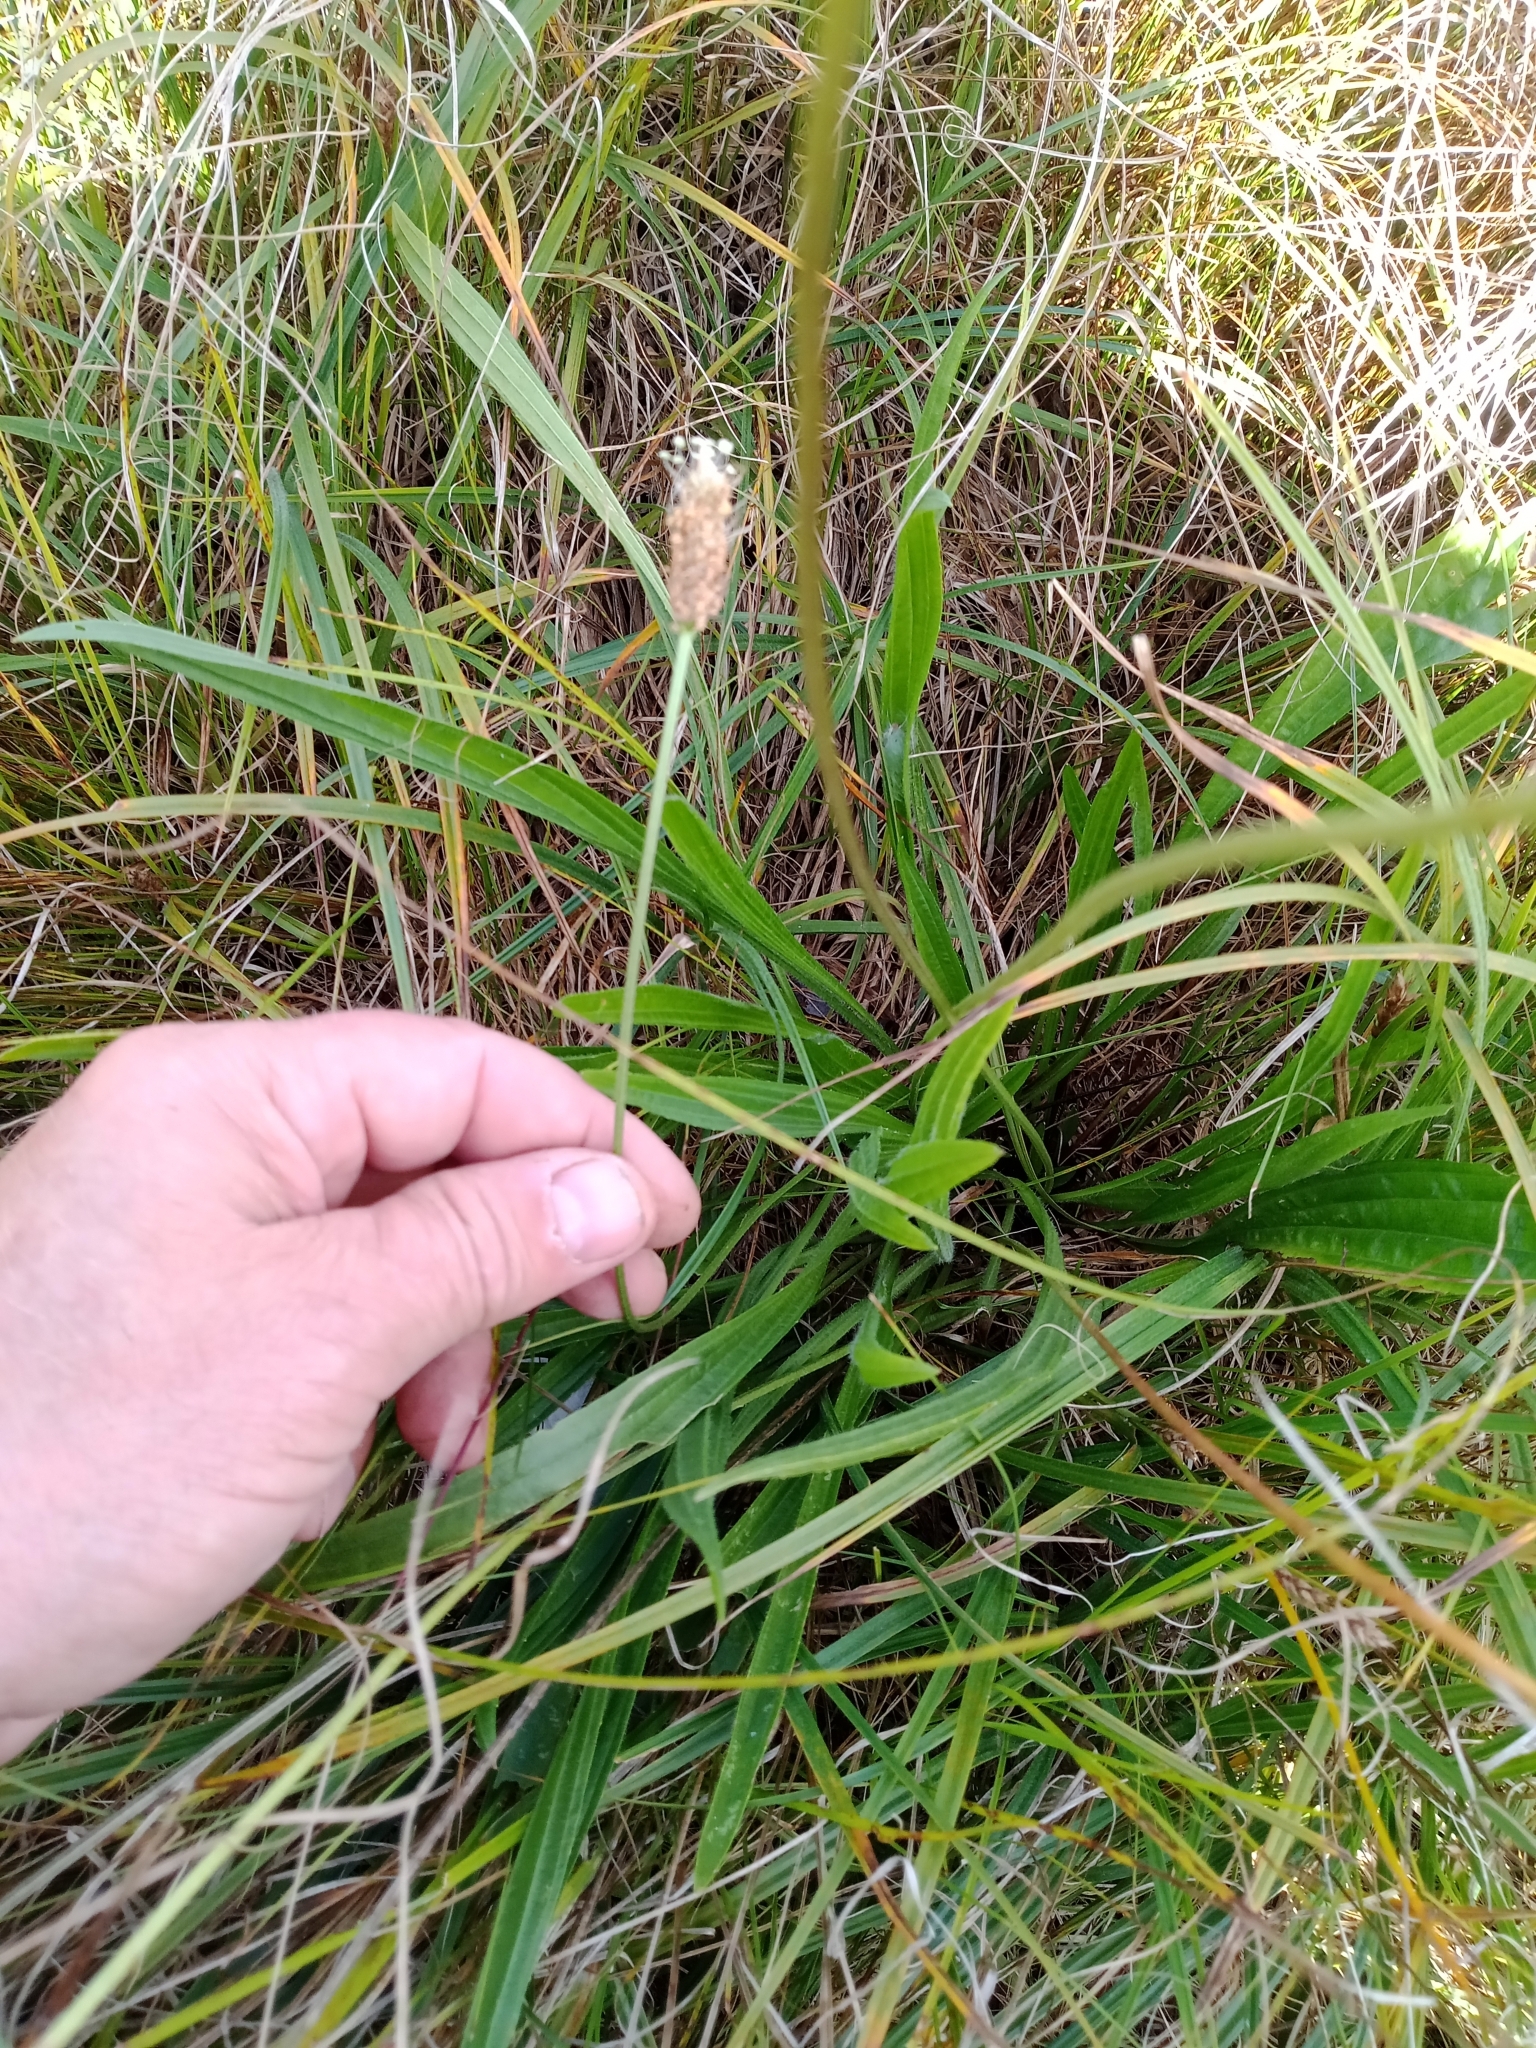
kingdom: Plantae
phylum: Tracheophyta
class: Magnoliopsida
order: Lamiales
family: Plantaginaceae
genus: Plantago
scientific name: Plantago lanceolata
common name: Ribwort plantain
